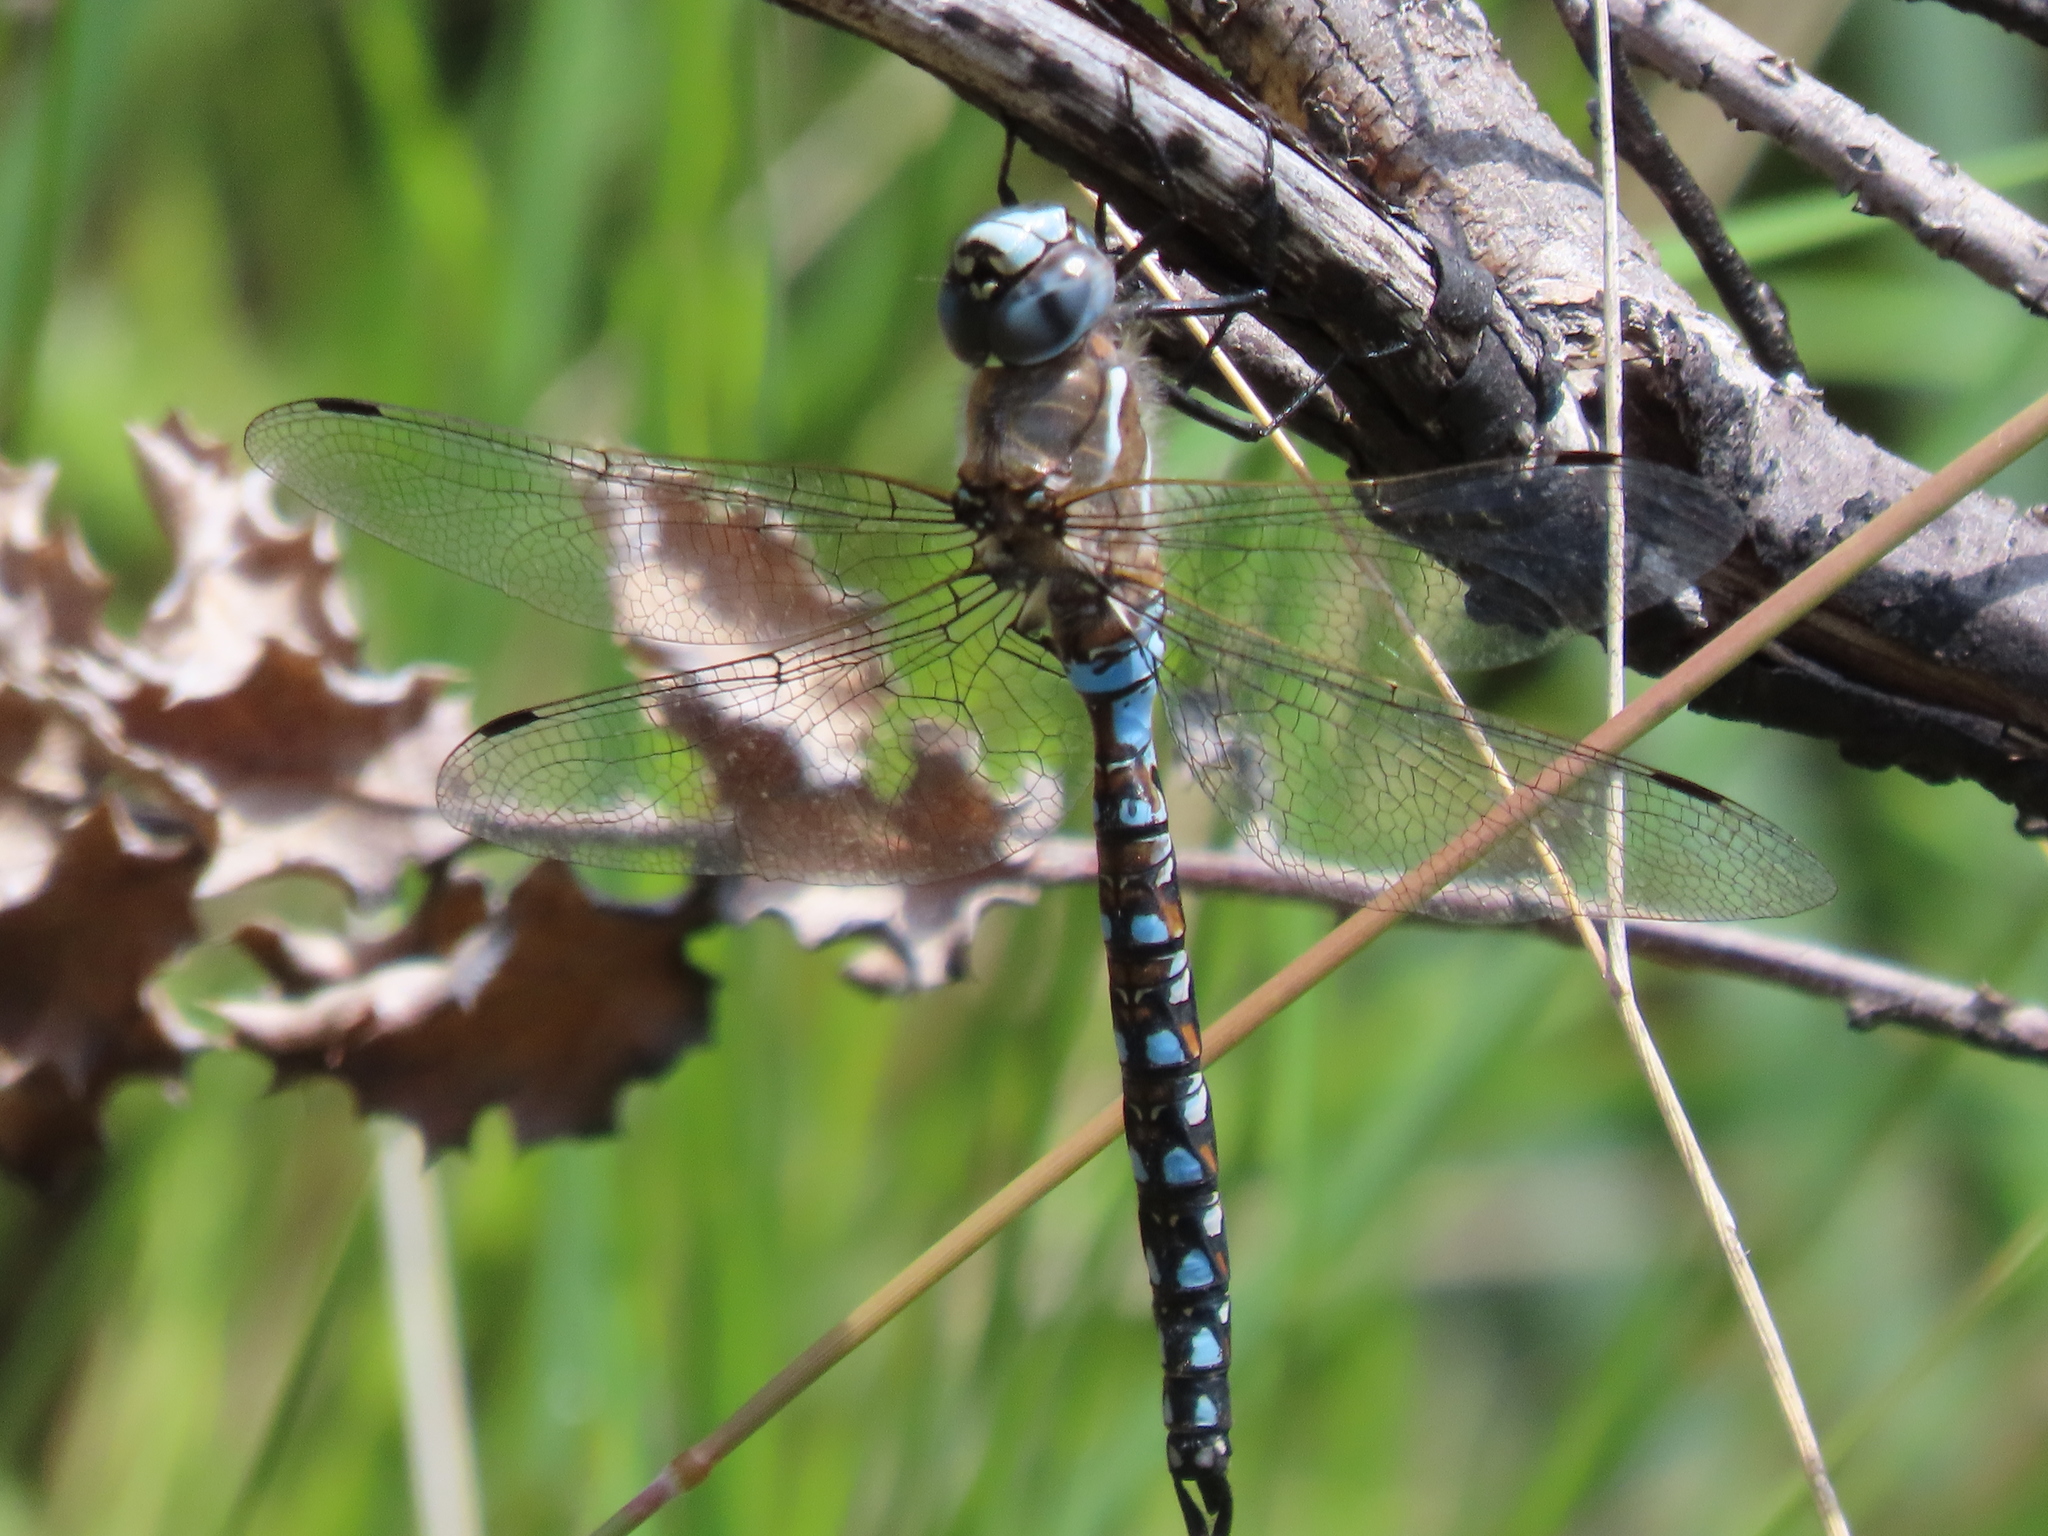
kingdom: Animalia
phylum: Arthropoda
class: Insecta
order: Odonata
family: Aeshnidae
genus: Rhionaeschna
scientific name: Rhionaeschna californica
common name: California darner
